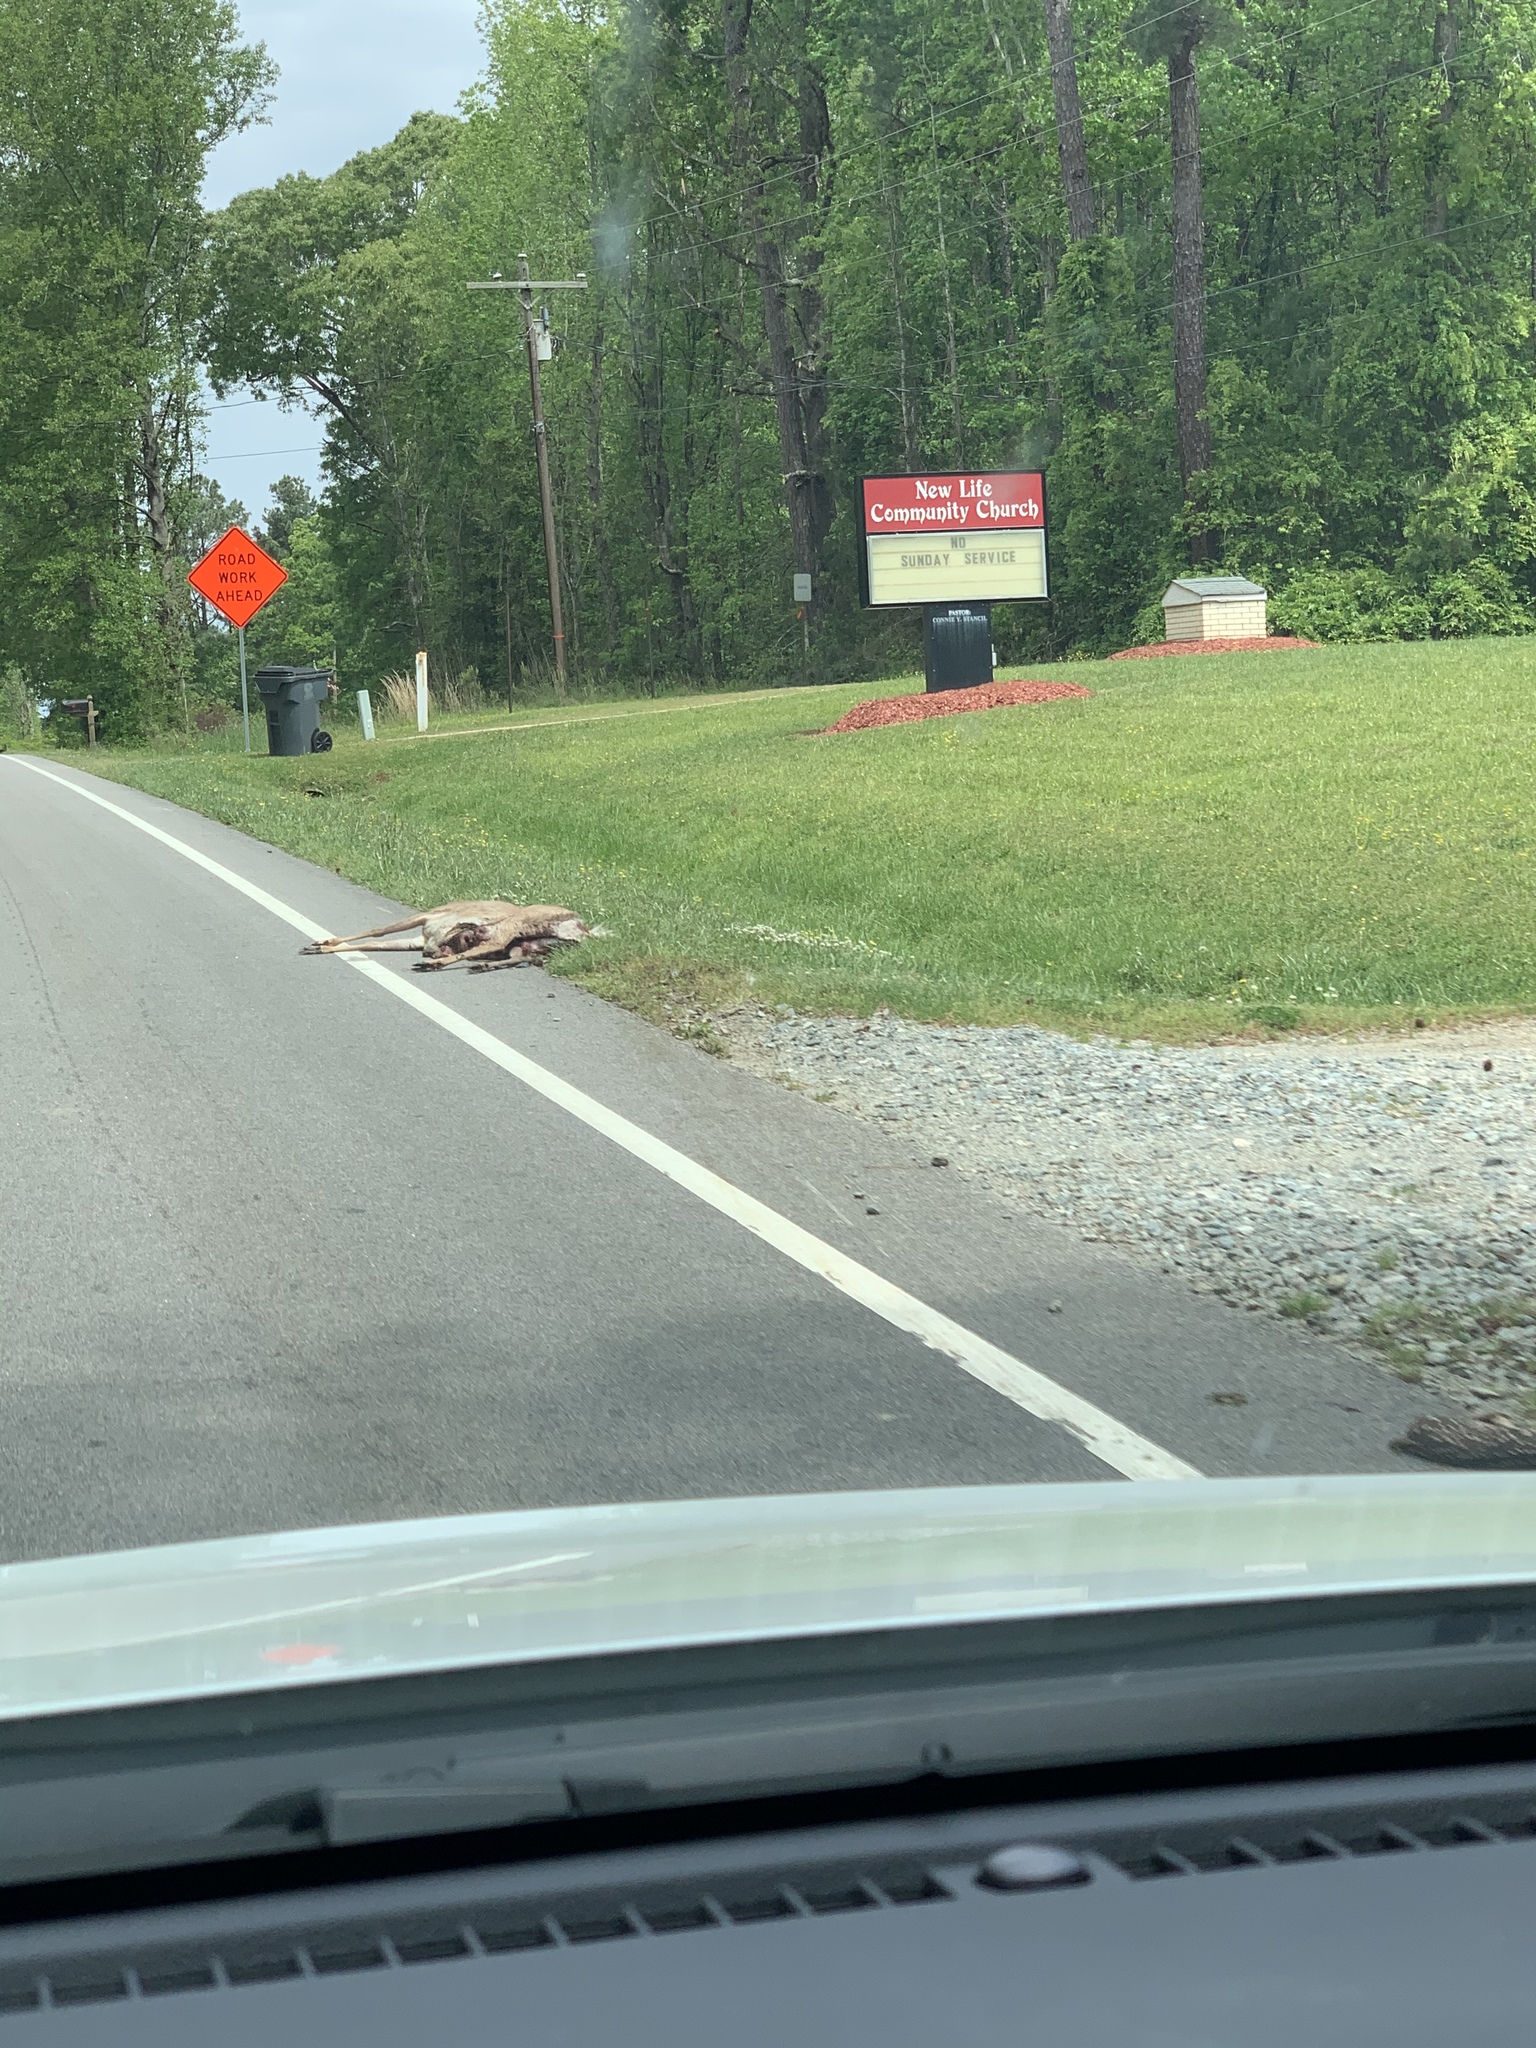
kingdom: Animalia
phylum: Chordata
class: Mammalia
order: Artiodactyla
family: Cervidae
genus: Odocoileus
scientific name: Odocoileus virginianus
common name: White-tailed deer
